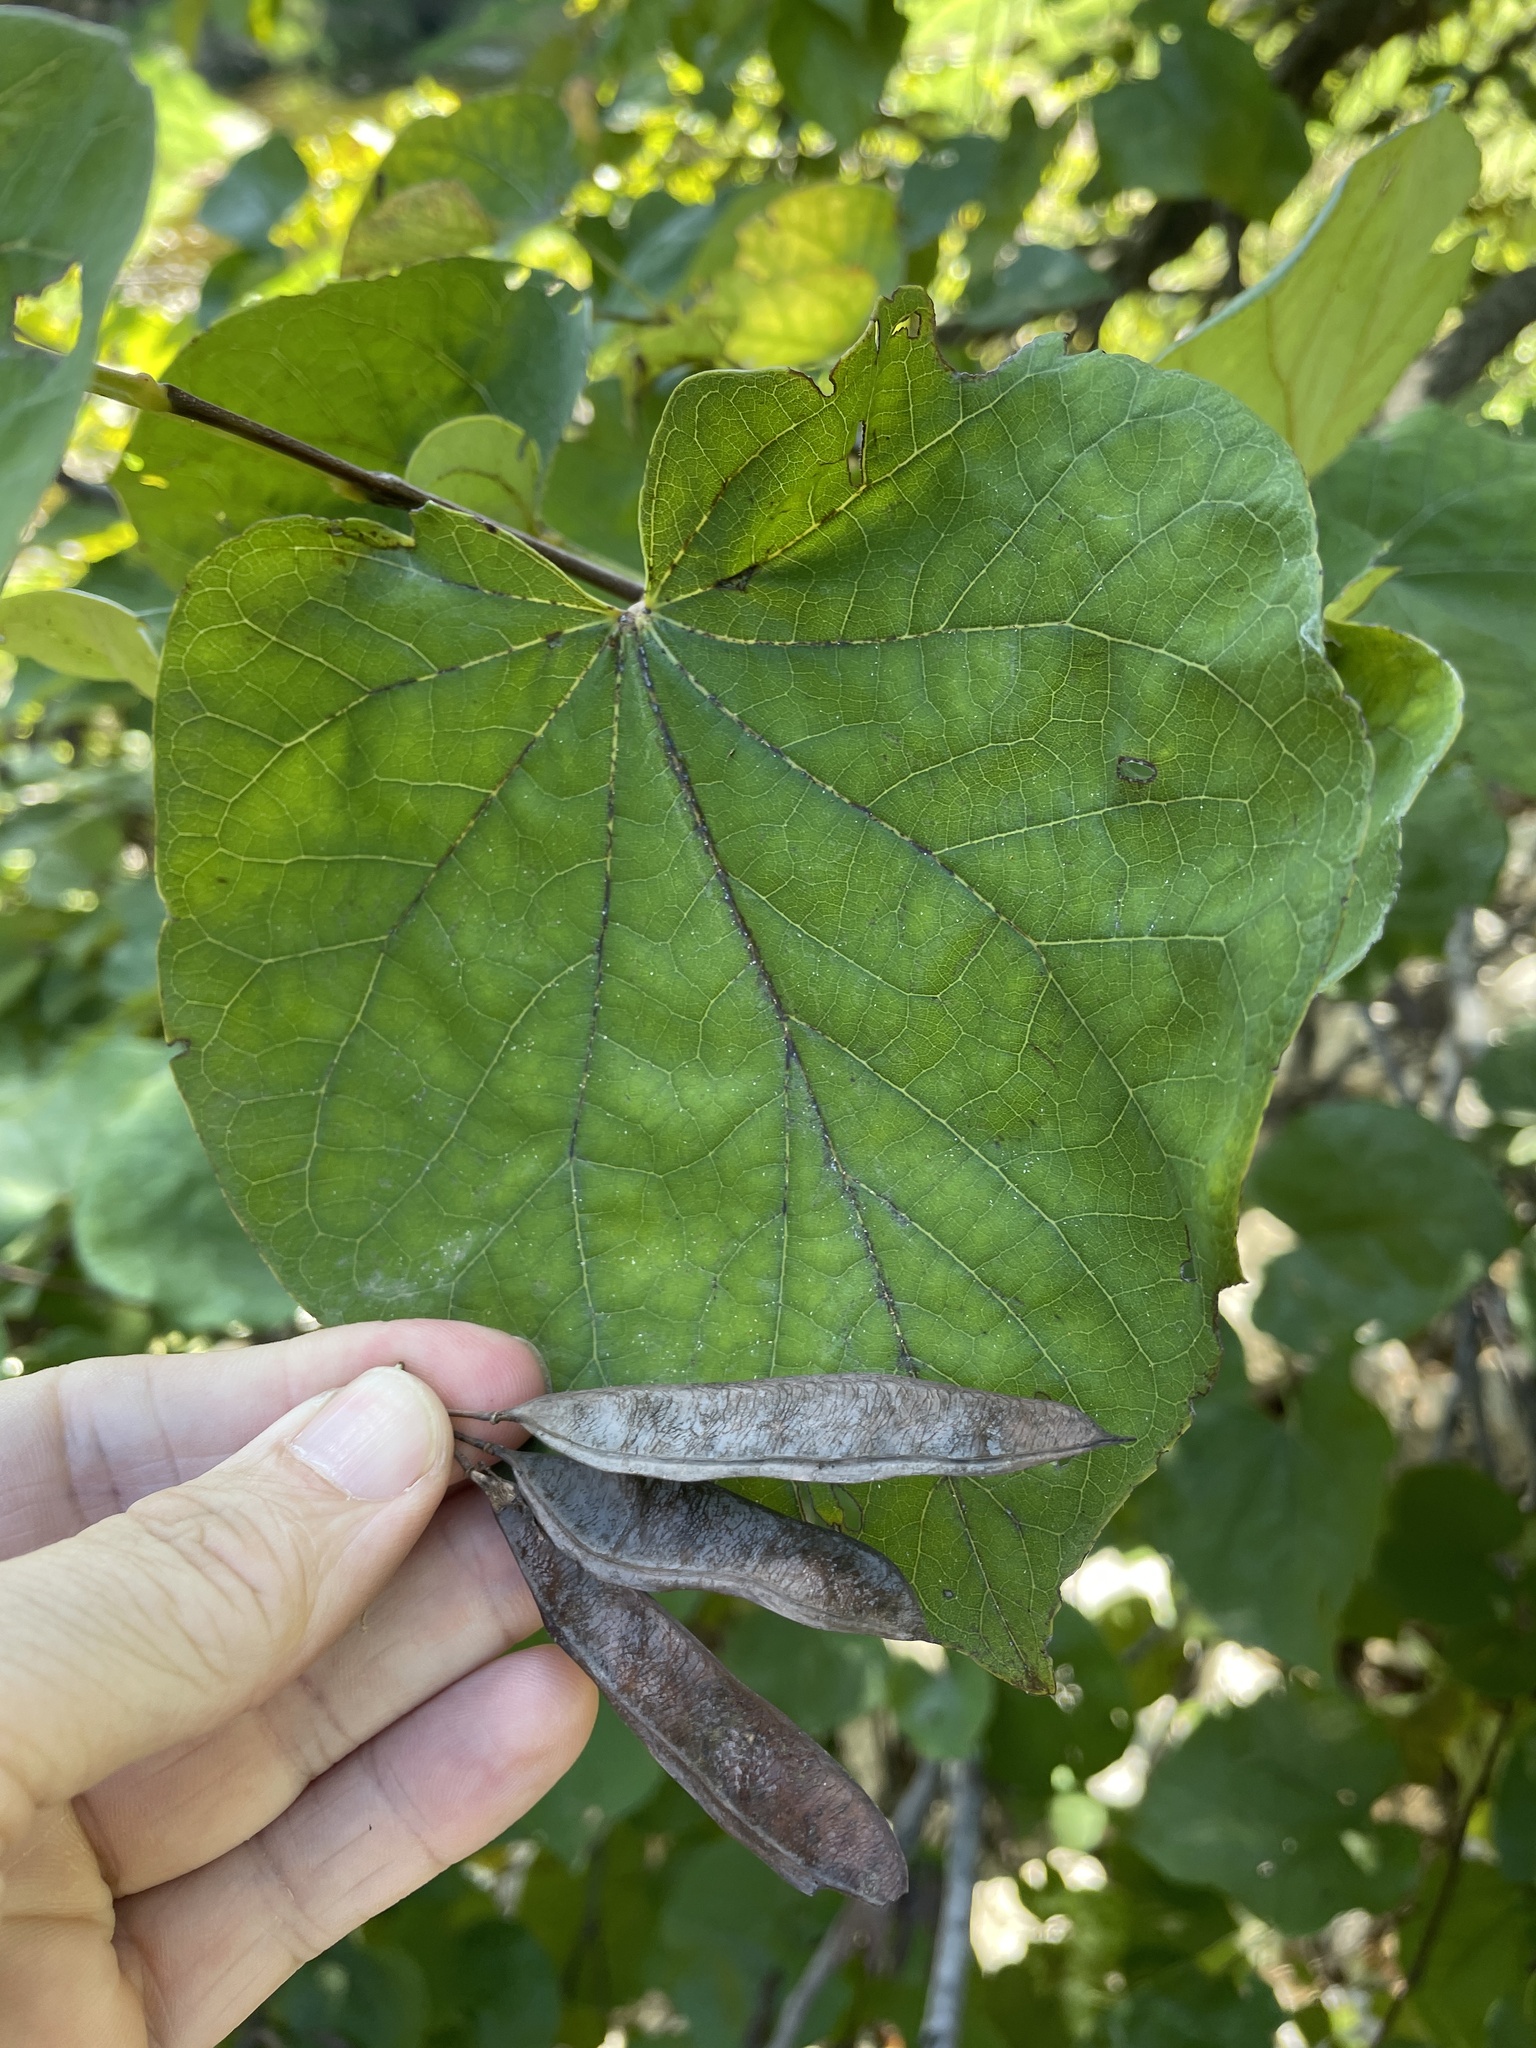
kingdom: Plantae
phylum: Tracheophyta
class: Magnoliopsida
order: Fabales
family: Fabaceae
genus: Cercis
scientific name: Cercis canadensis
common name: Eastern redbud
